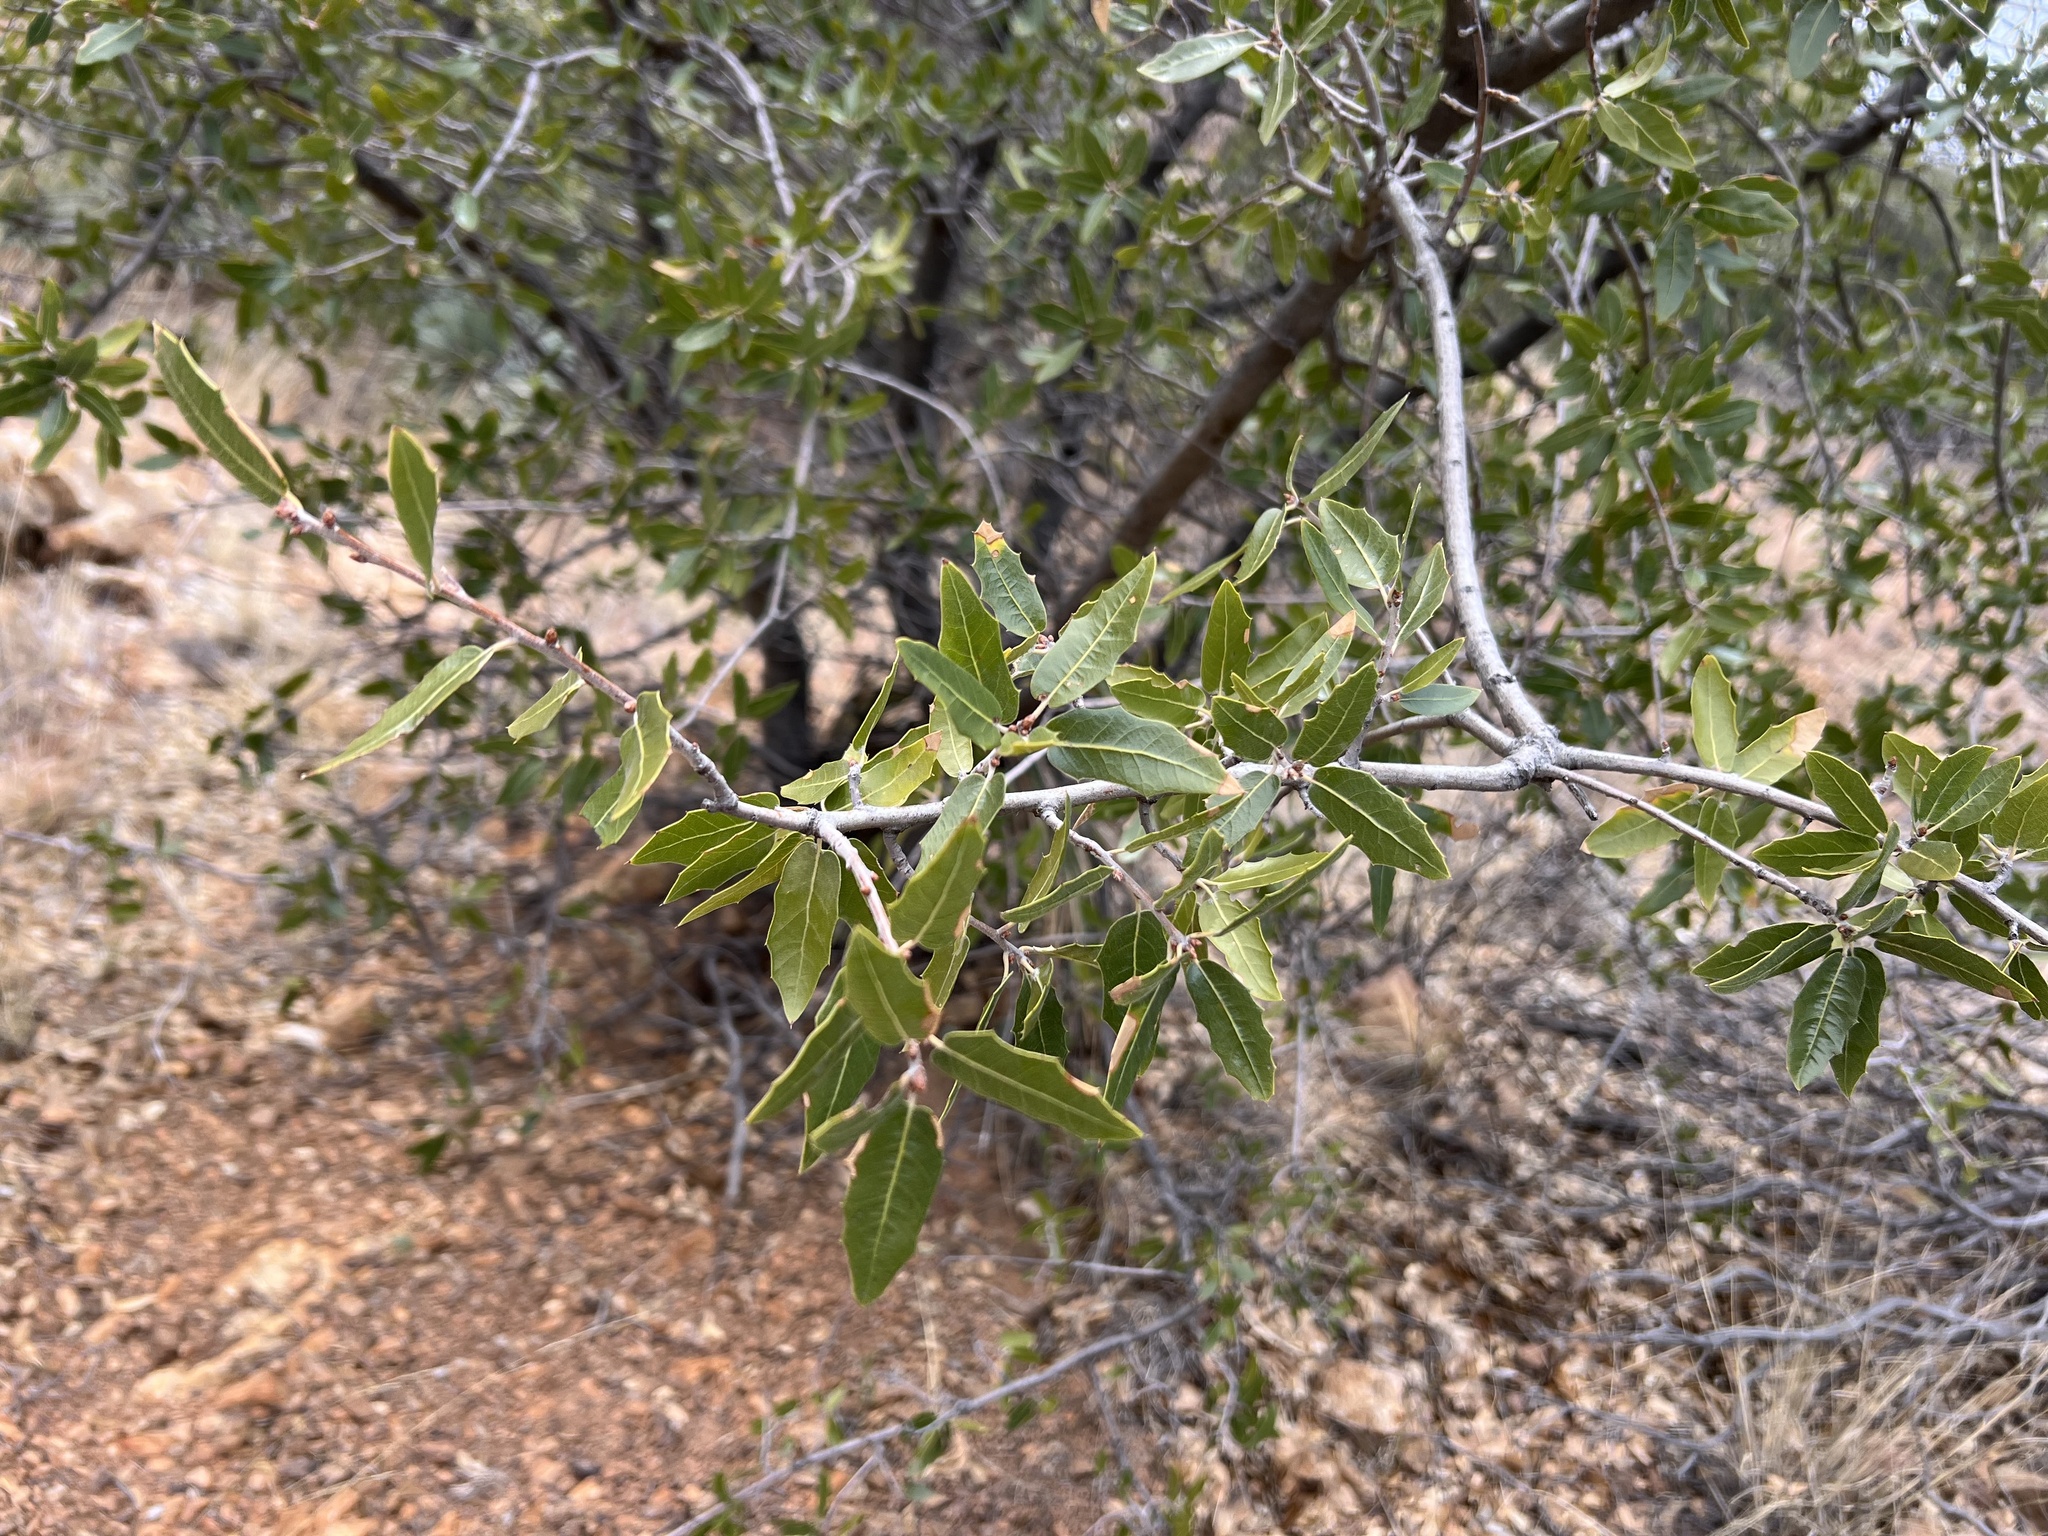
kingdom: Plantae
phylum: Tracheophyta
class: Magnoliopsida
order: Fagales
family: Fagaceae
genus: Quercus
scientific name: Quercus emoryi
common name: Emory oak
